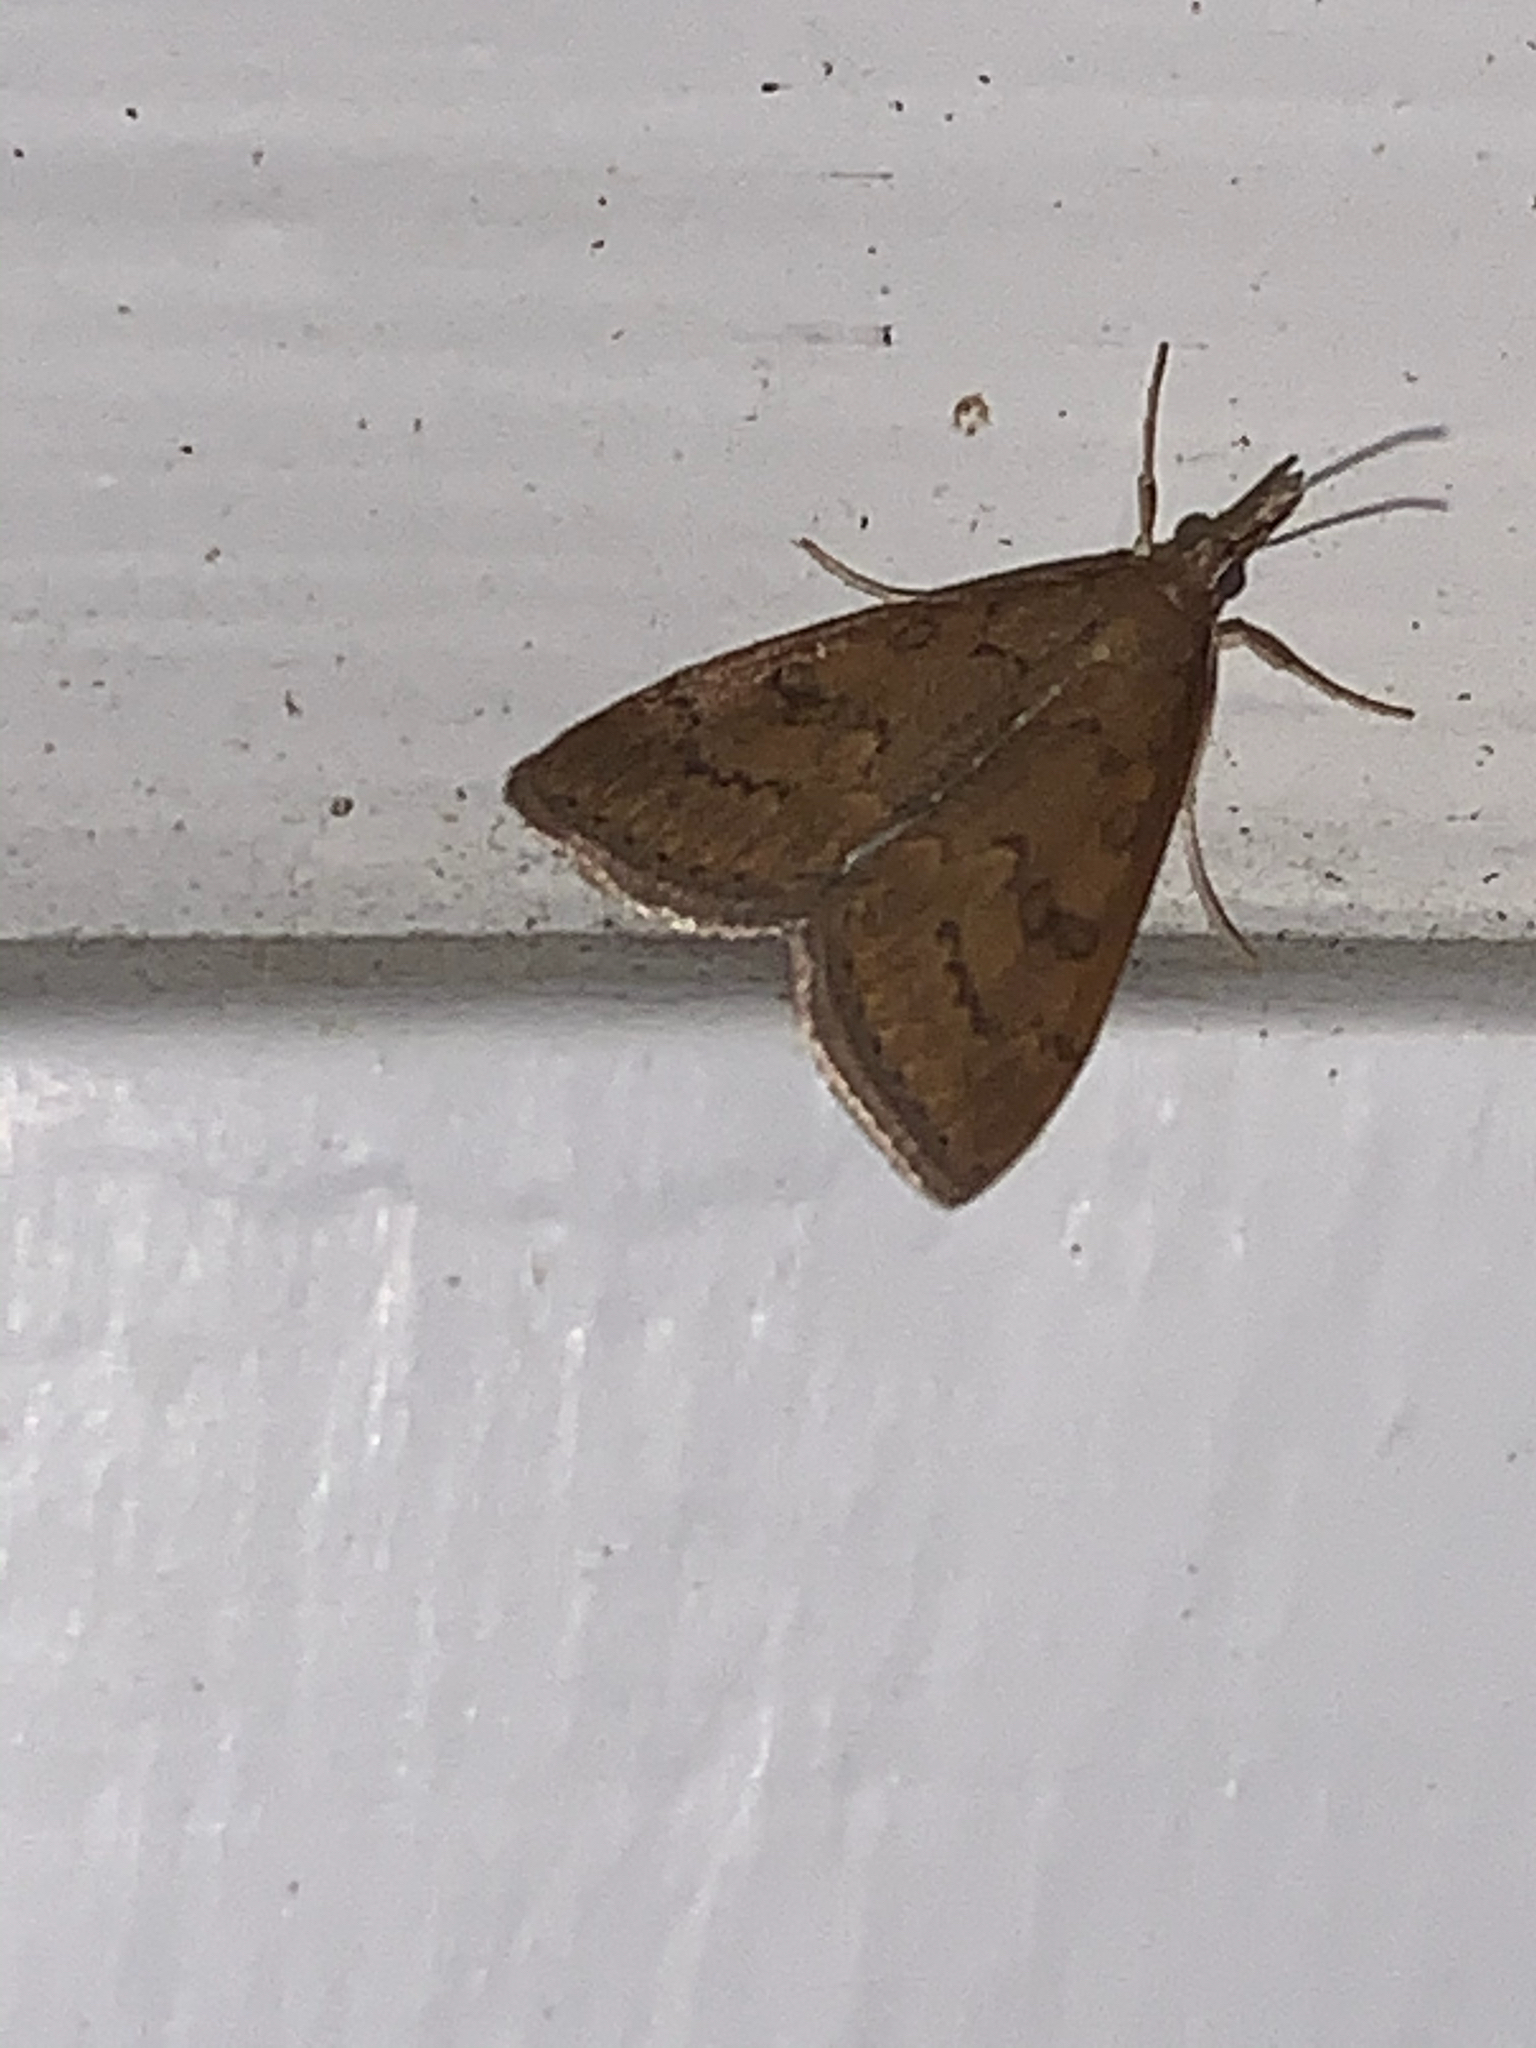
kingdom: Animalia
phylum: Arthropoda
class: Insecta
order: Lepidoptera
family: Crambidae
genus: Udea
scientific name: Udea rubigalis
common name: Celery leaftier moth
